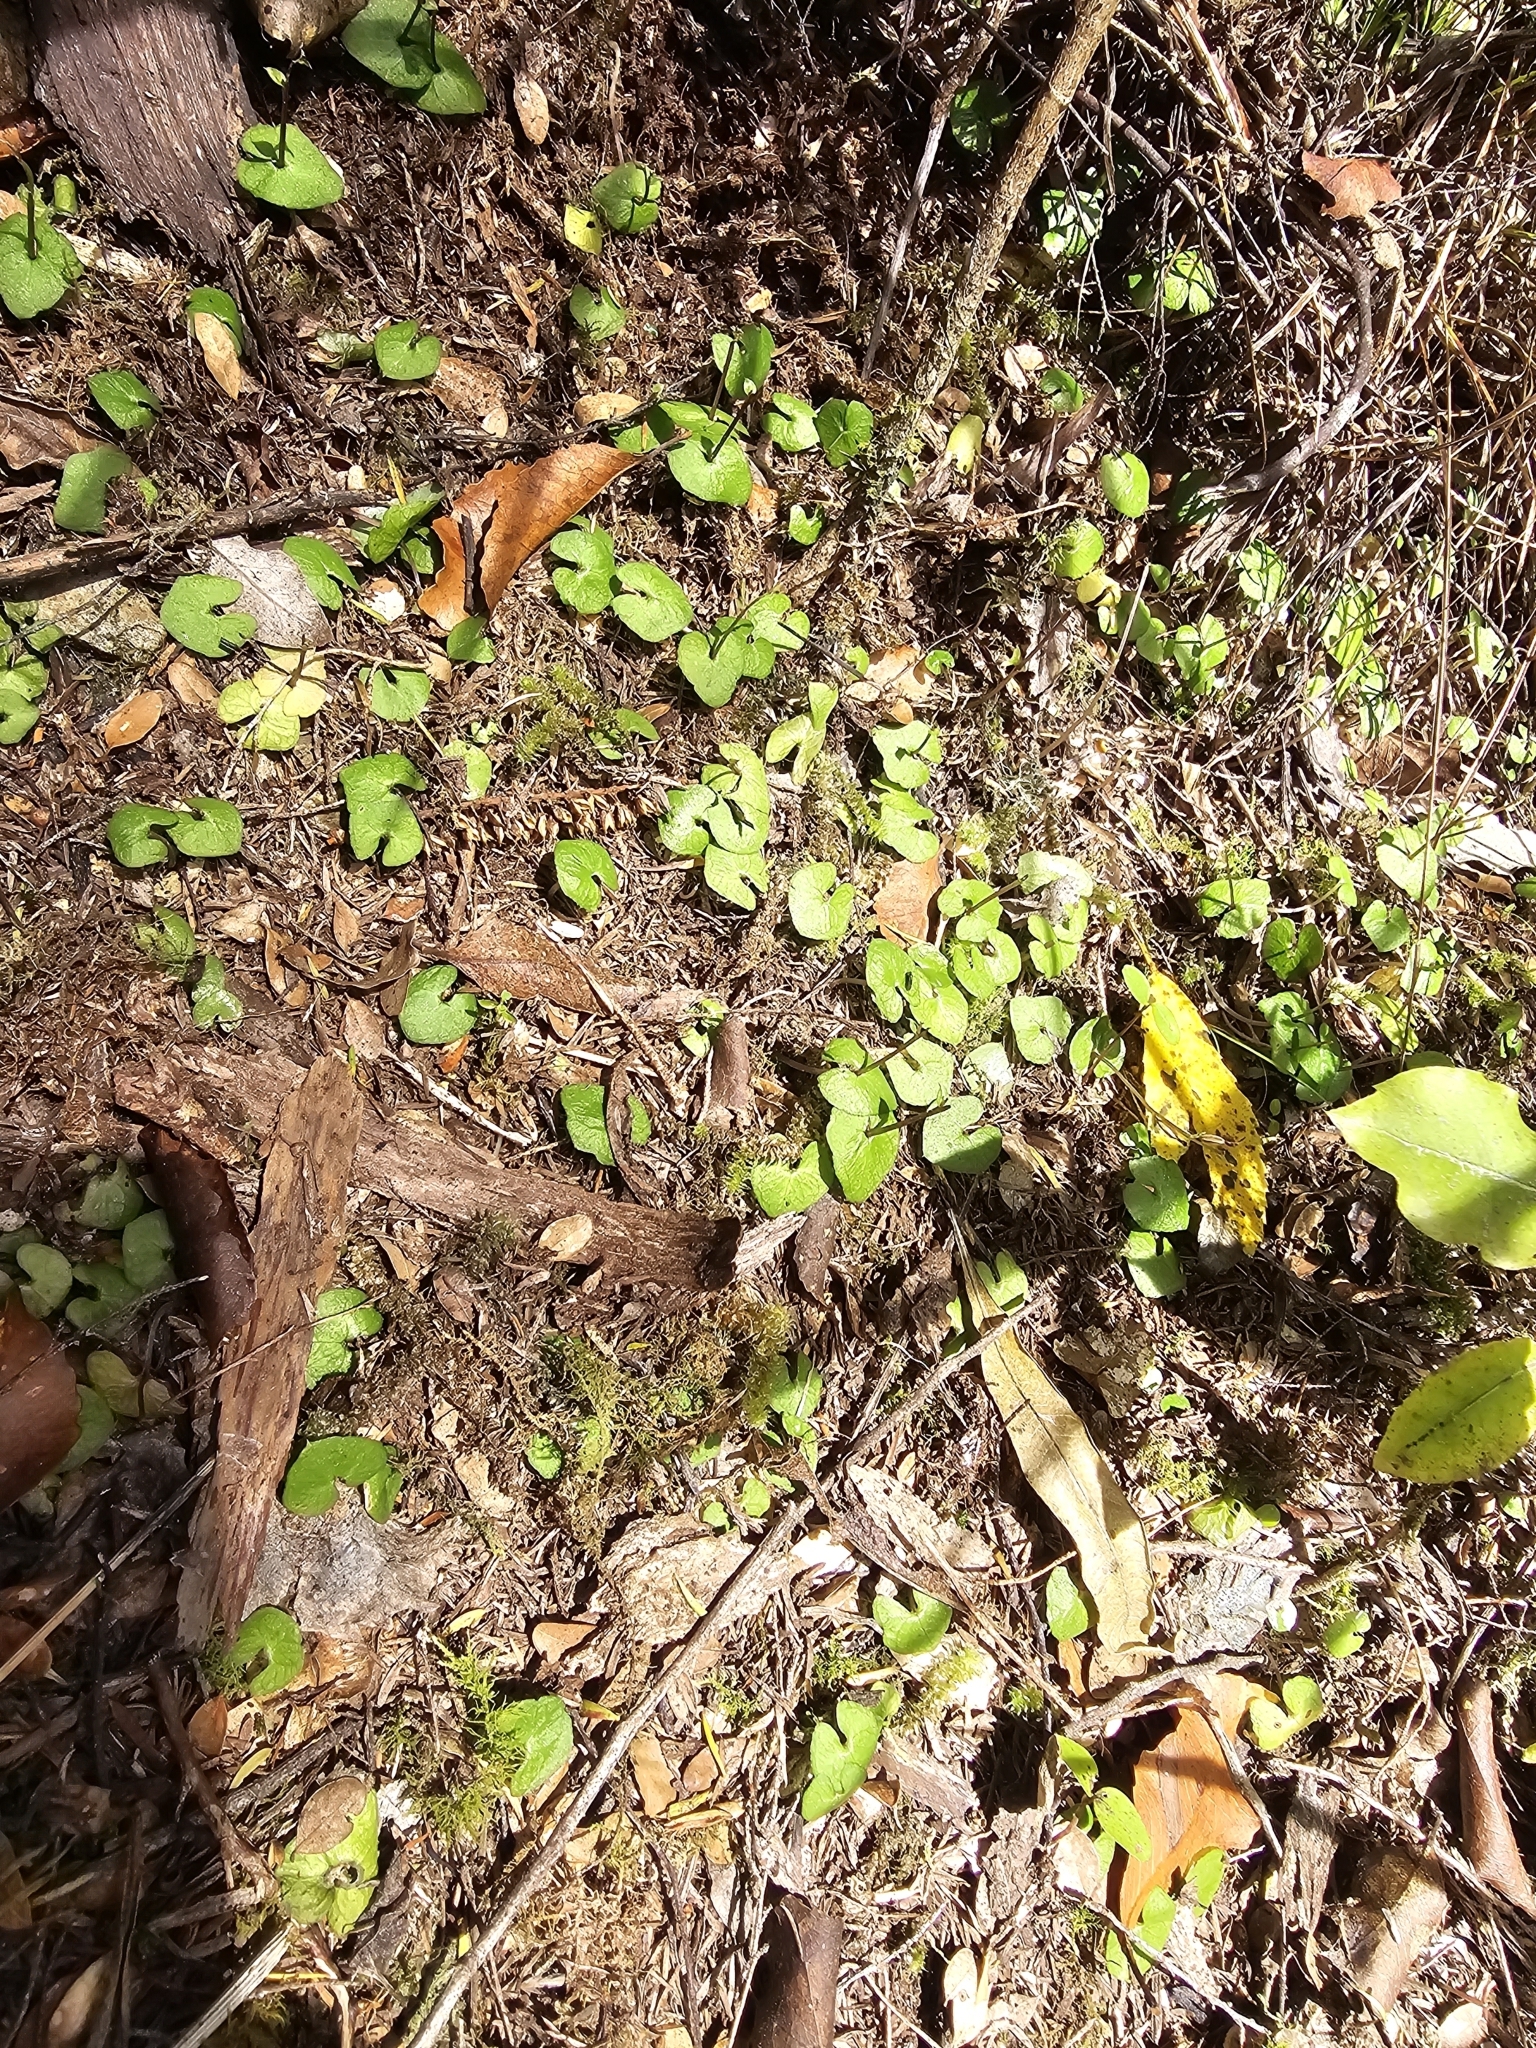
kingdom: Plantae
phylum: Tracheophyta
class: Liliopsida
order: Asparagales
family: Orchidaceae
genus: Acianthus
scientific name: Acianthus sinclairii
